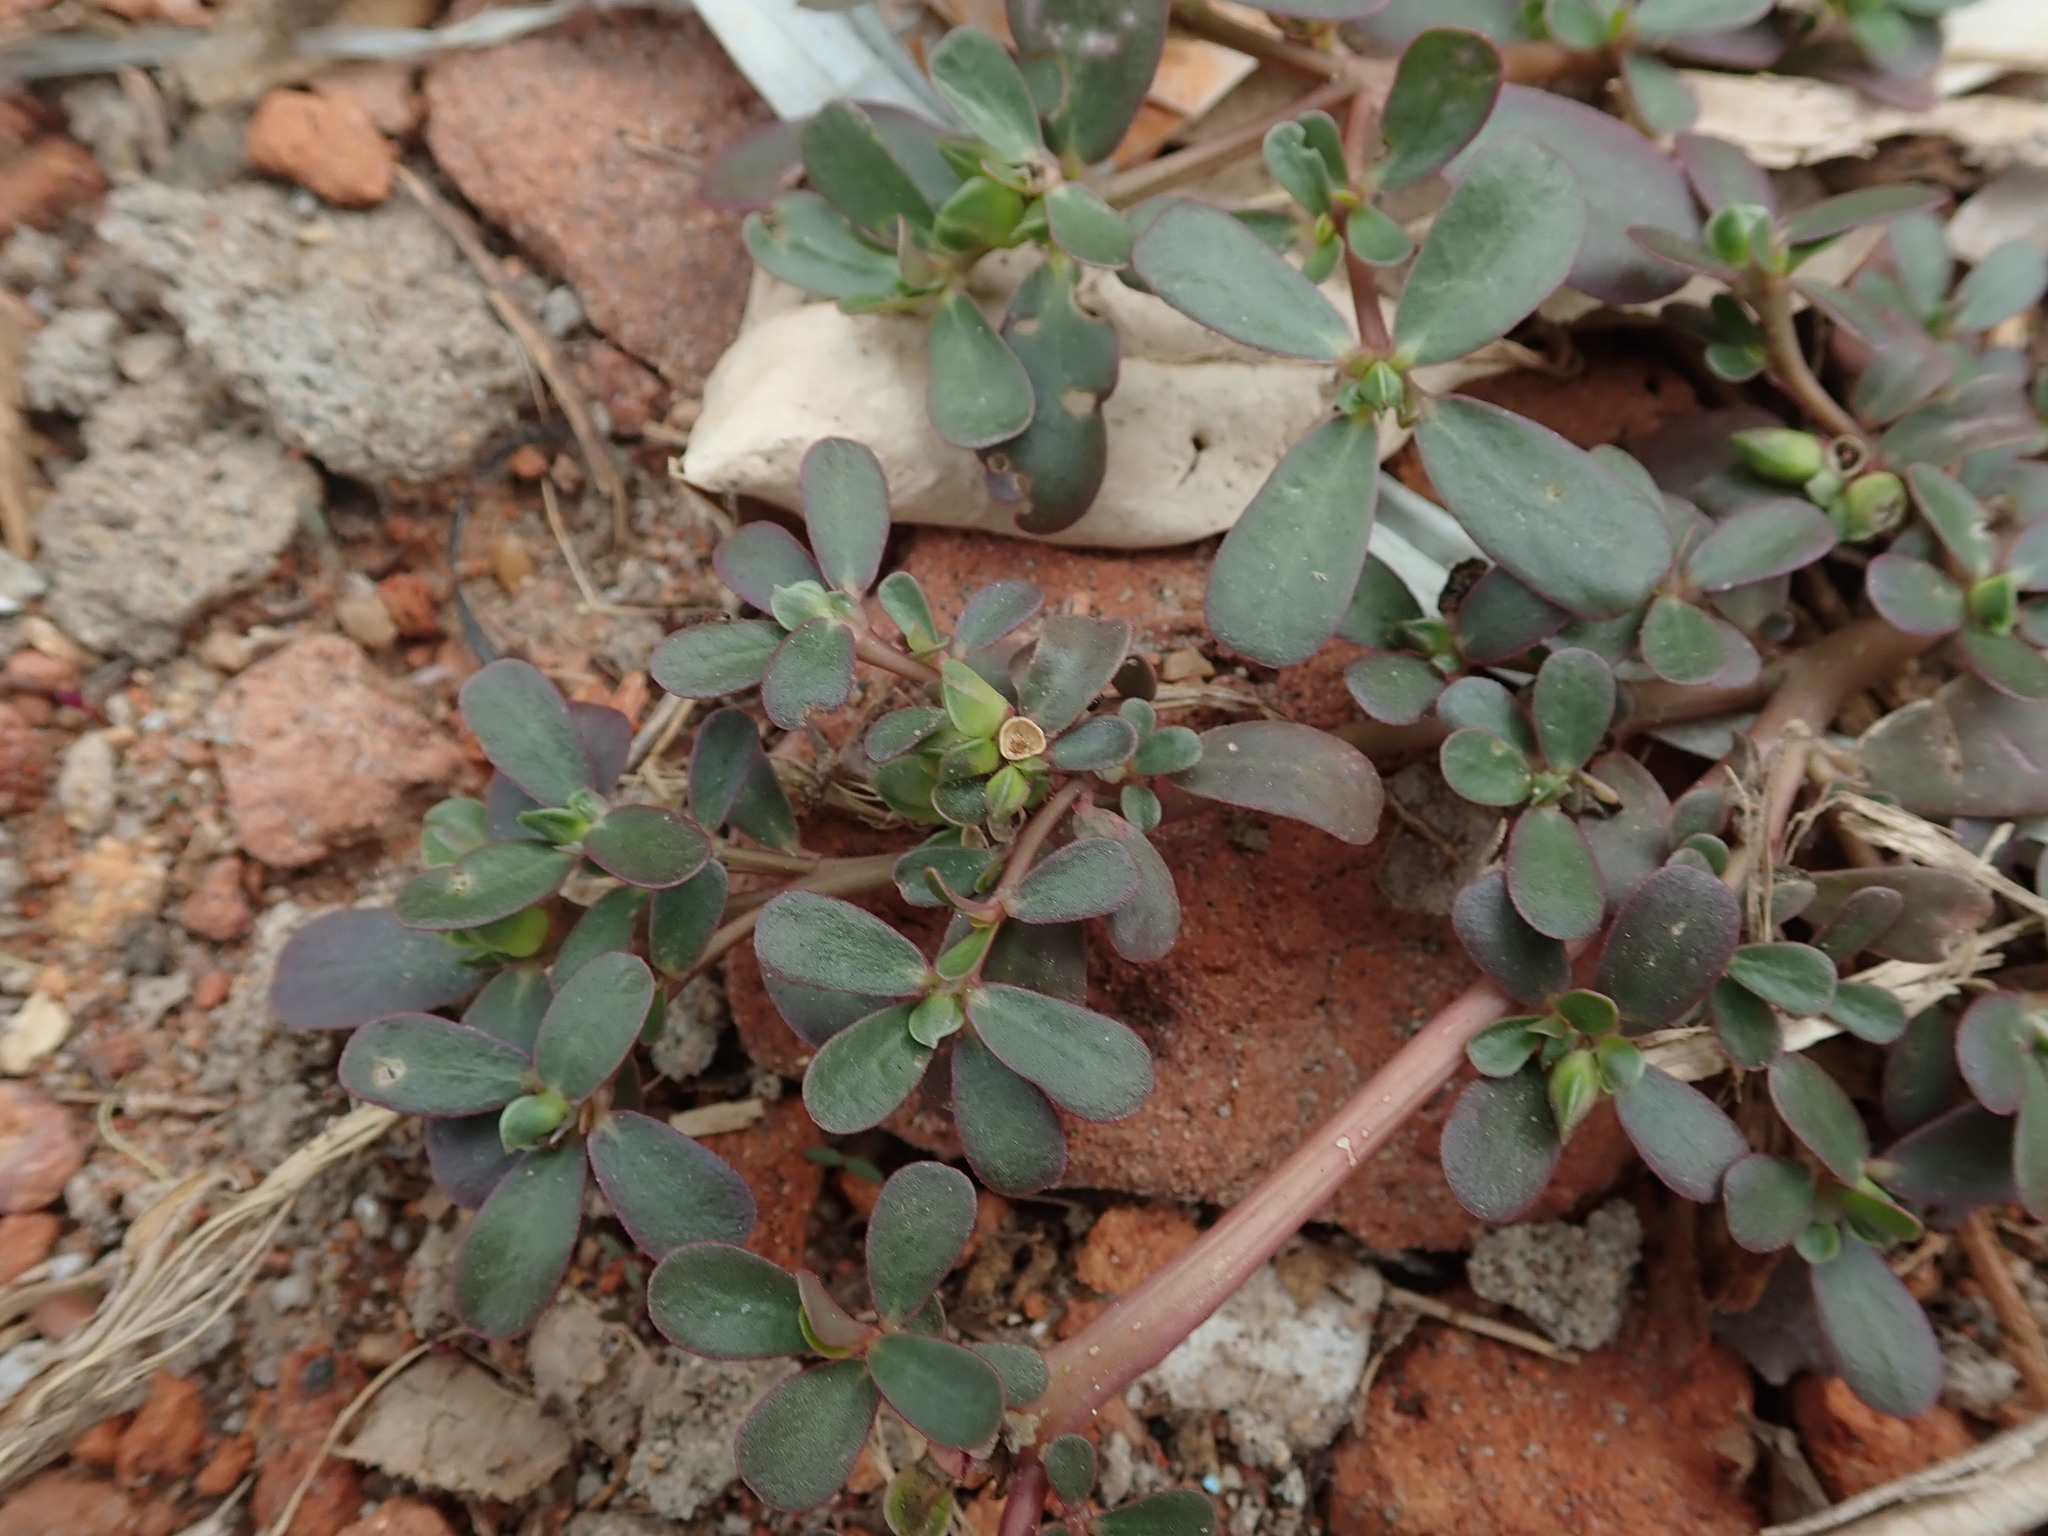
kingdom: Plantae
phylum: Tracheophyta
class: Magnoliopsida
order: Caryophyllales
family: Portulacaceae
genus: Portulaca
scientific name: Portulaca oleracea
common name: Common purslane
